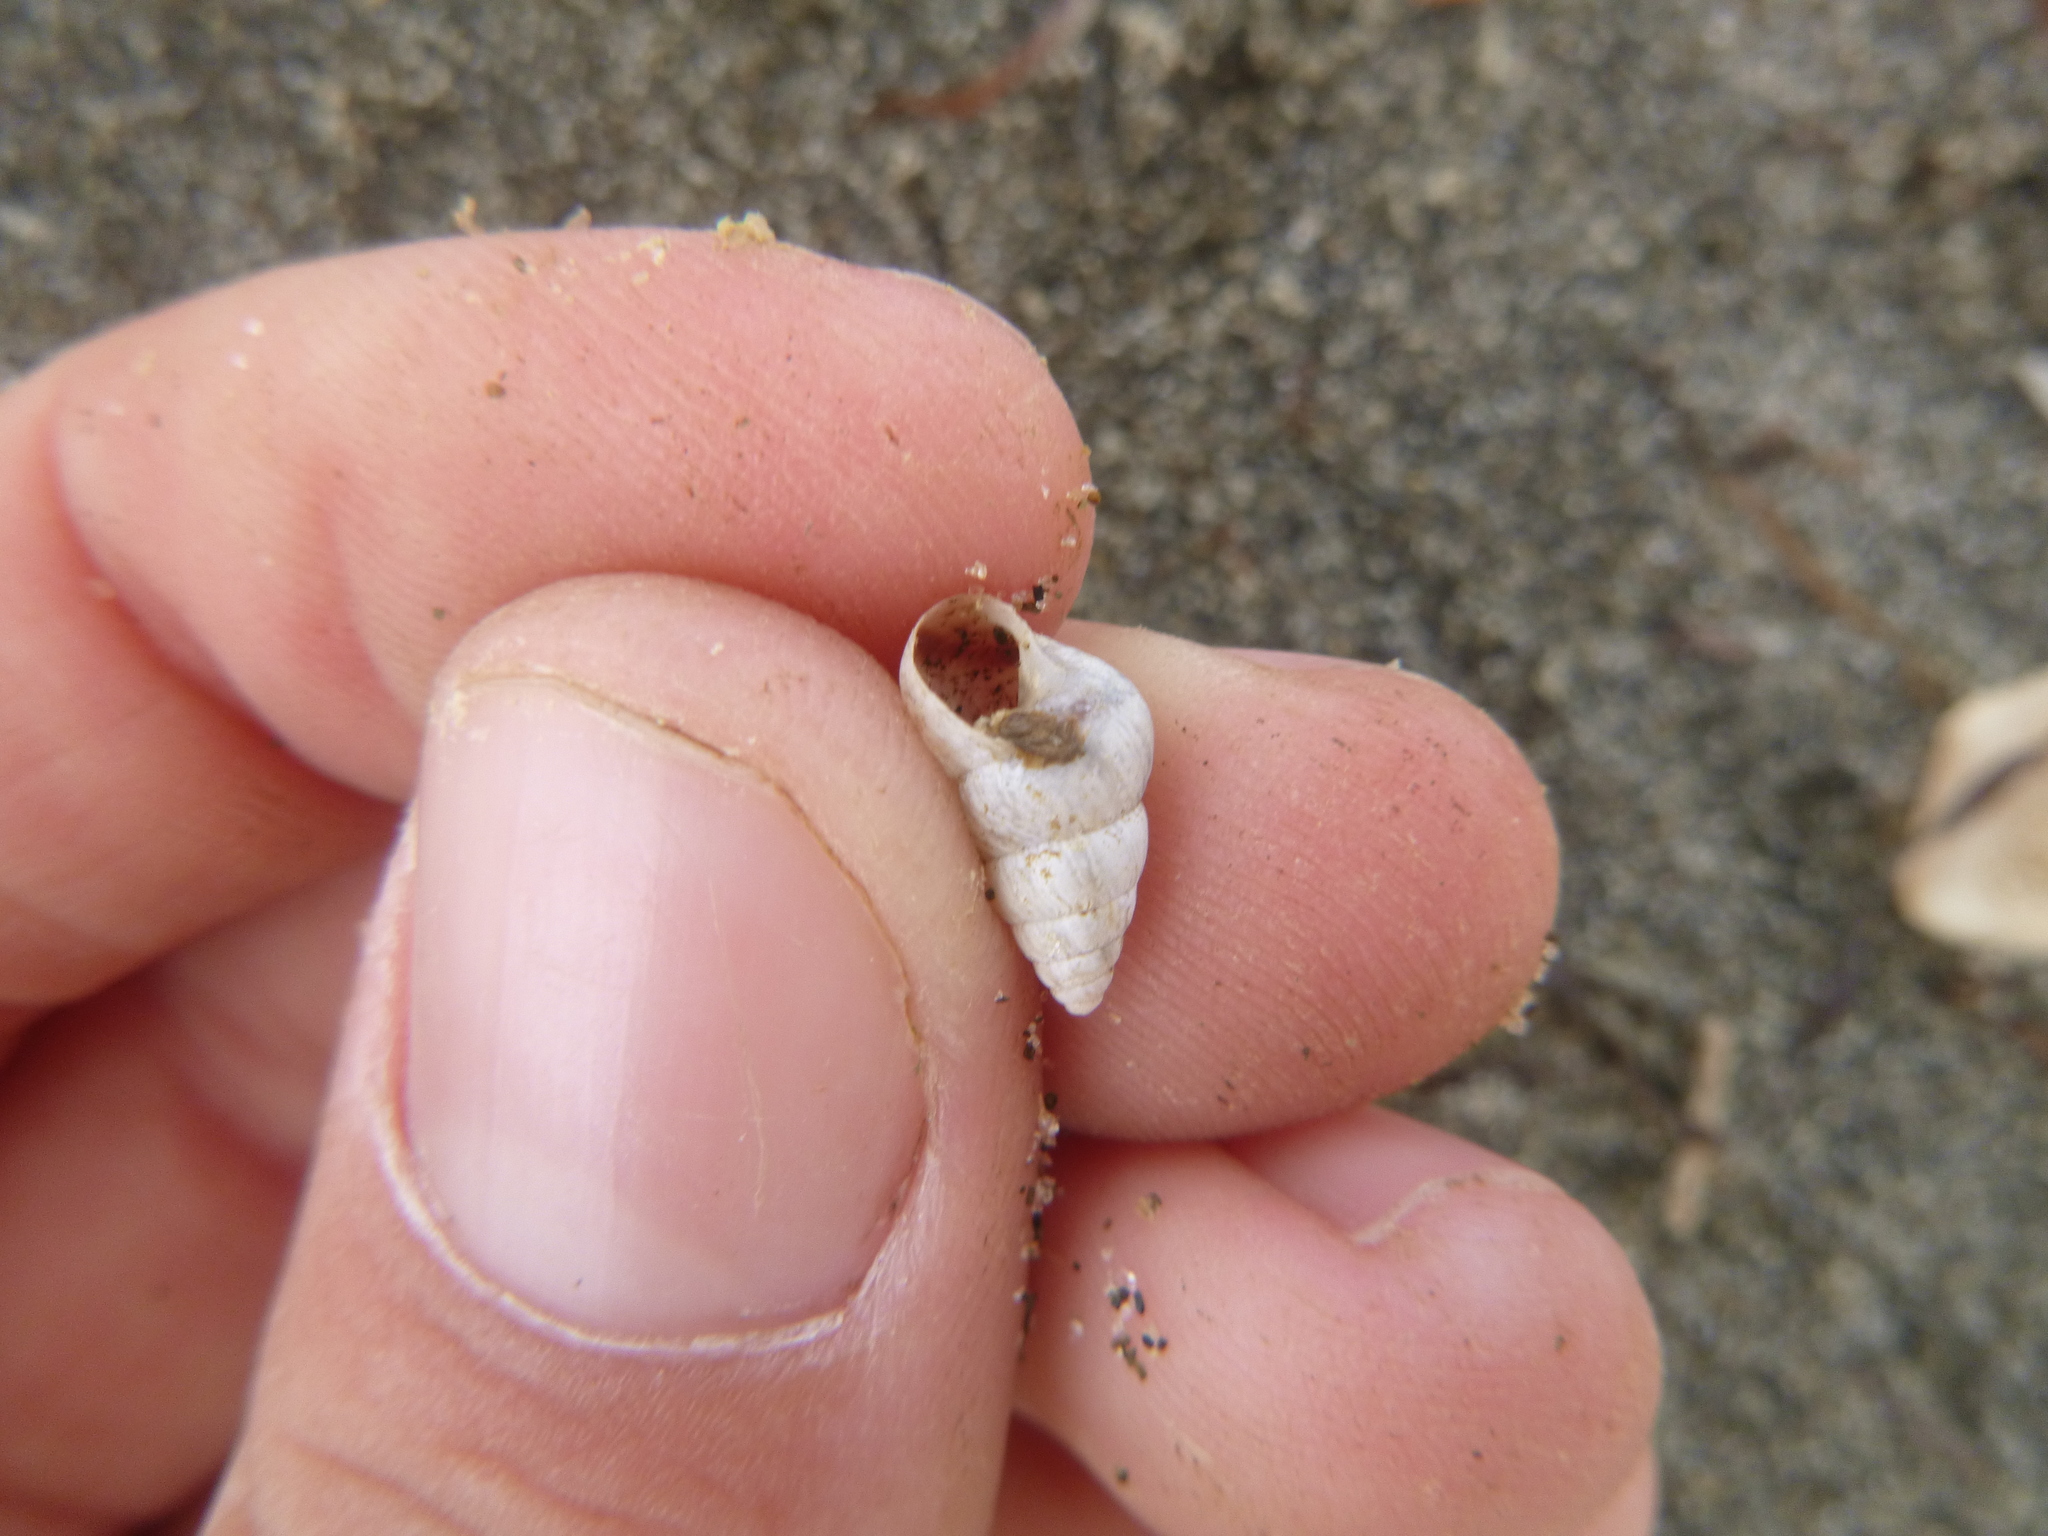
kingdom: Animalia
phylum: Mollusca
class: Gastropoda
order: Stylommatophora
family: Geomitridae
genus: Cochlicella
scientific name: Cochlicella barbara
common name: Potbellied helicellid
